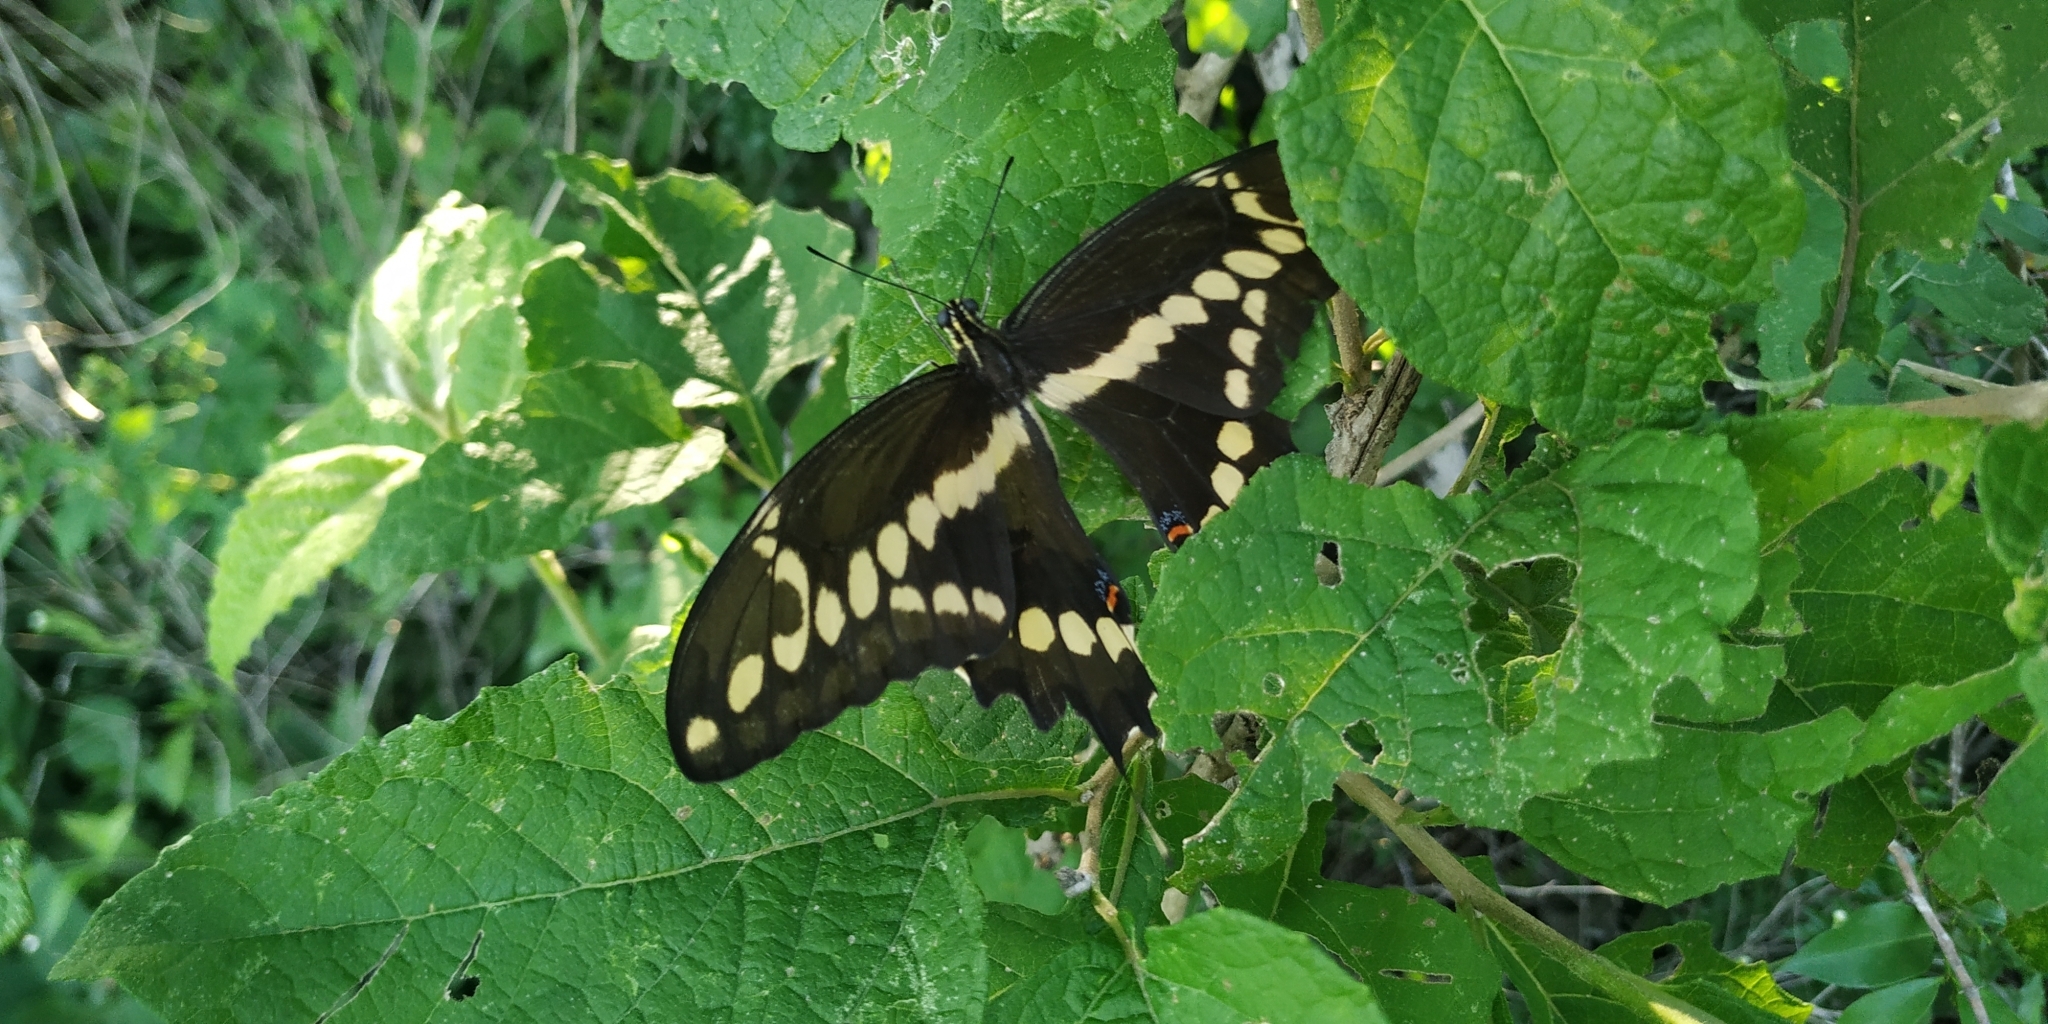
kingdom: Animalia
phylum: Arthropoda
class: Insecta
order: Lepidoptera
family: Papilionidae
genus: Papilio
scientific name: Papilio rumiko
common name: Western giant swallowtail
